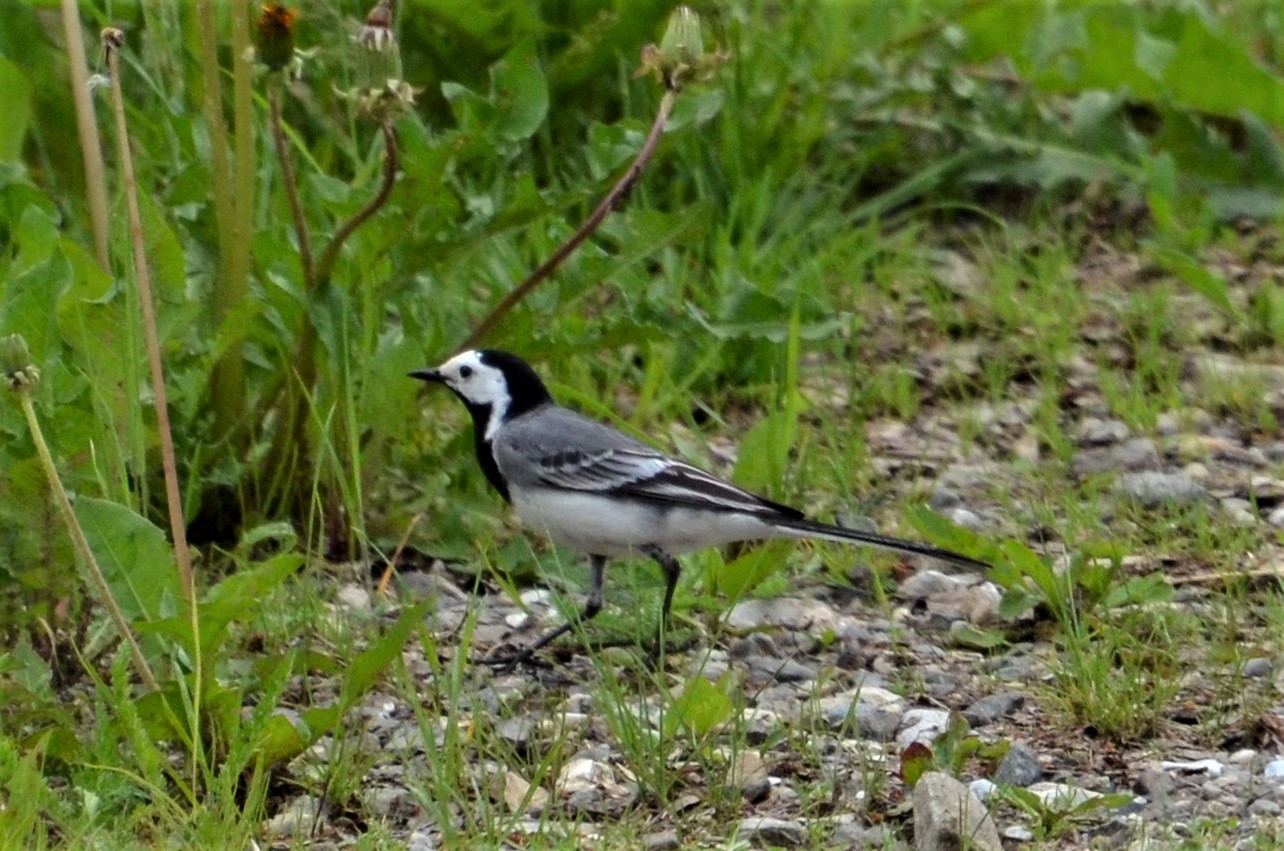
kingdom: Animalia
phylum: Chordata
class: Aves
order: Passeriformes
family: Motacillidae
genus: Motacilla
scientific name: Motacilla alba
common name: White wagtail
